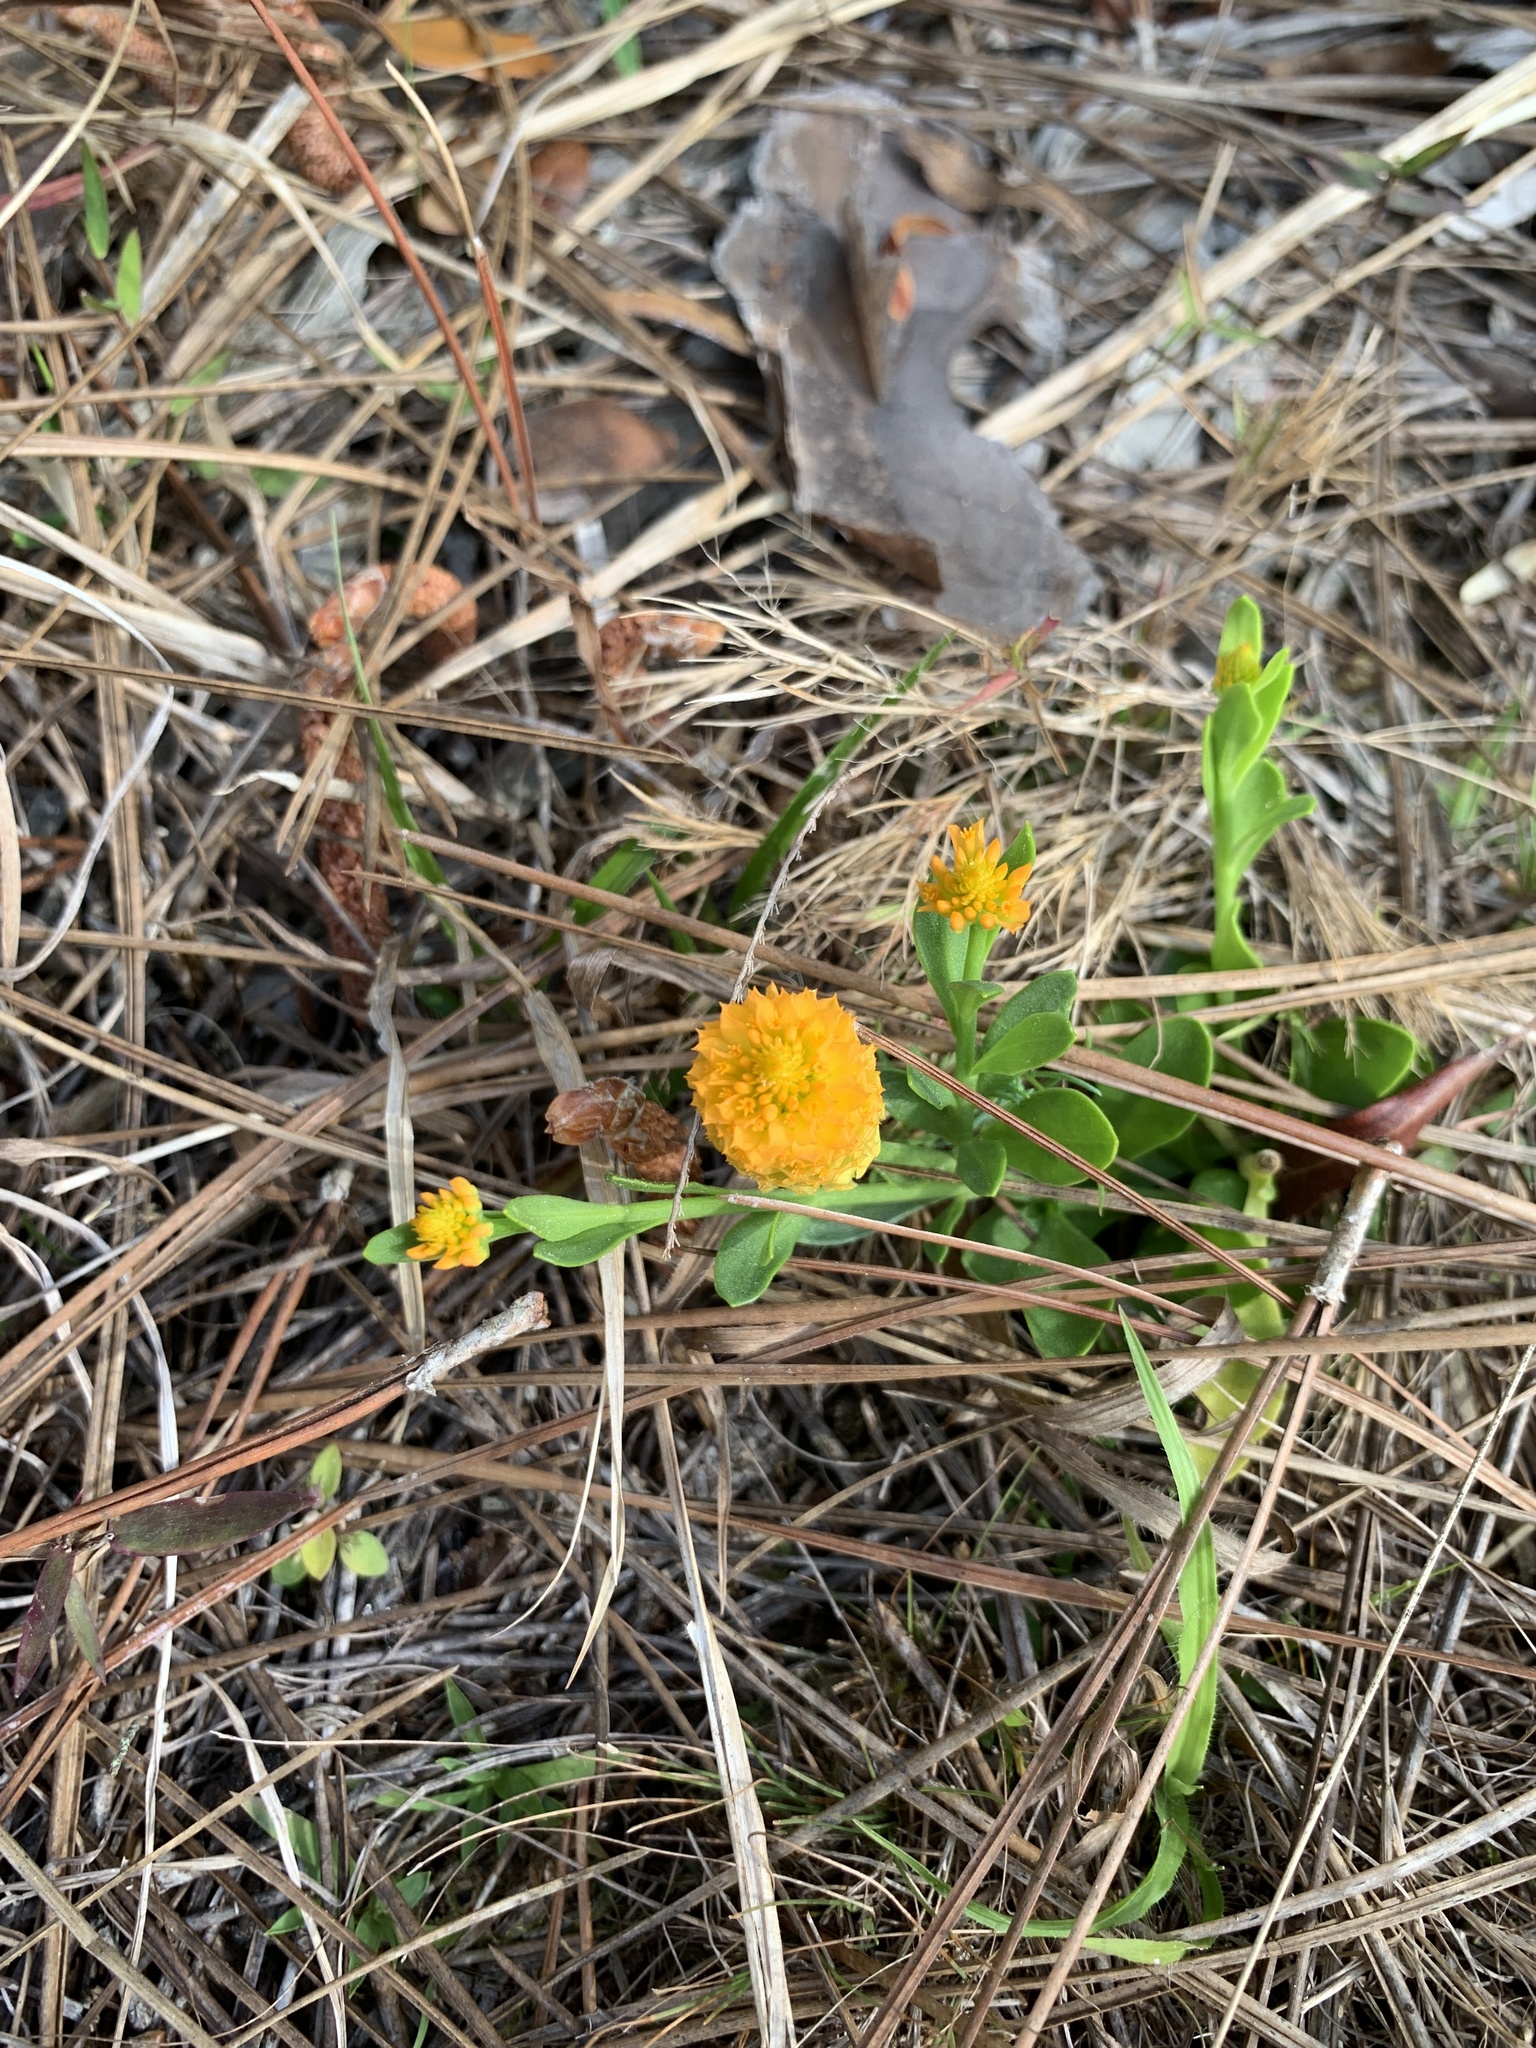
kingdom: Plantae
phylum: Tracheophyta
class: Magnoliopsida
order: Fabales
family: Polygalaceae
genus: Polygala
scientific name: Polygala lutea
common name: Orange milkwort
